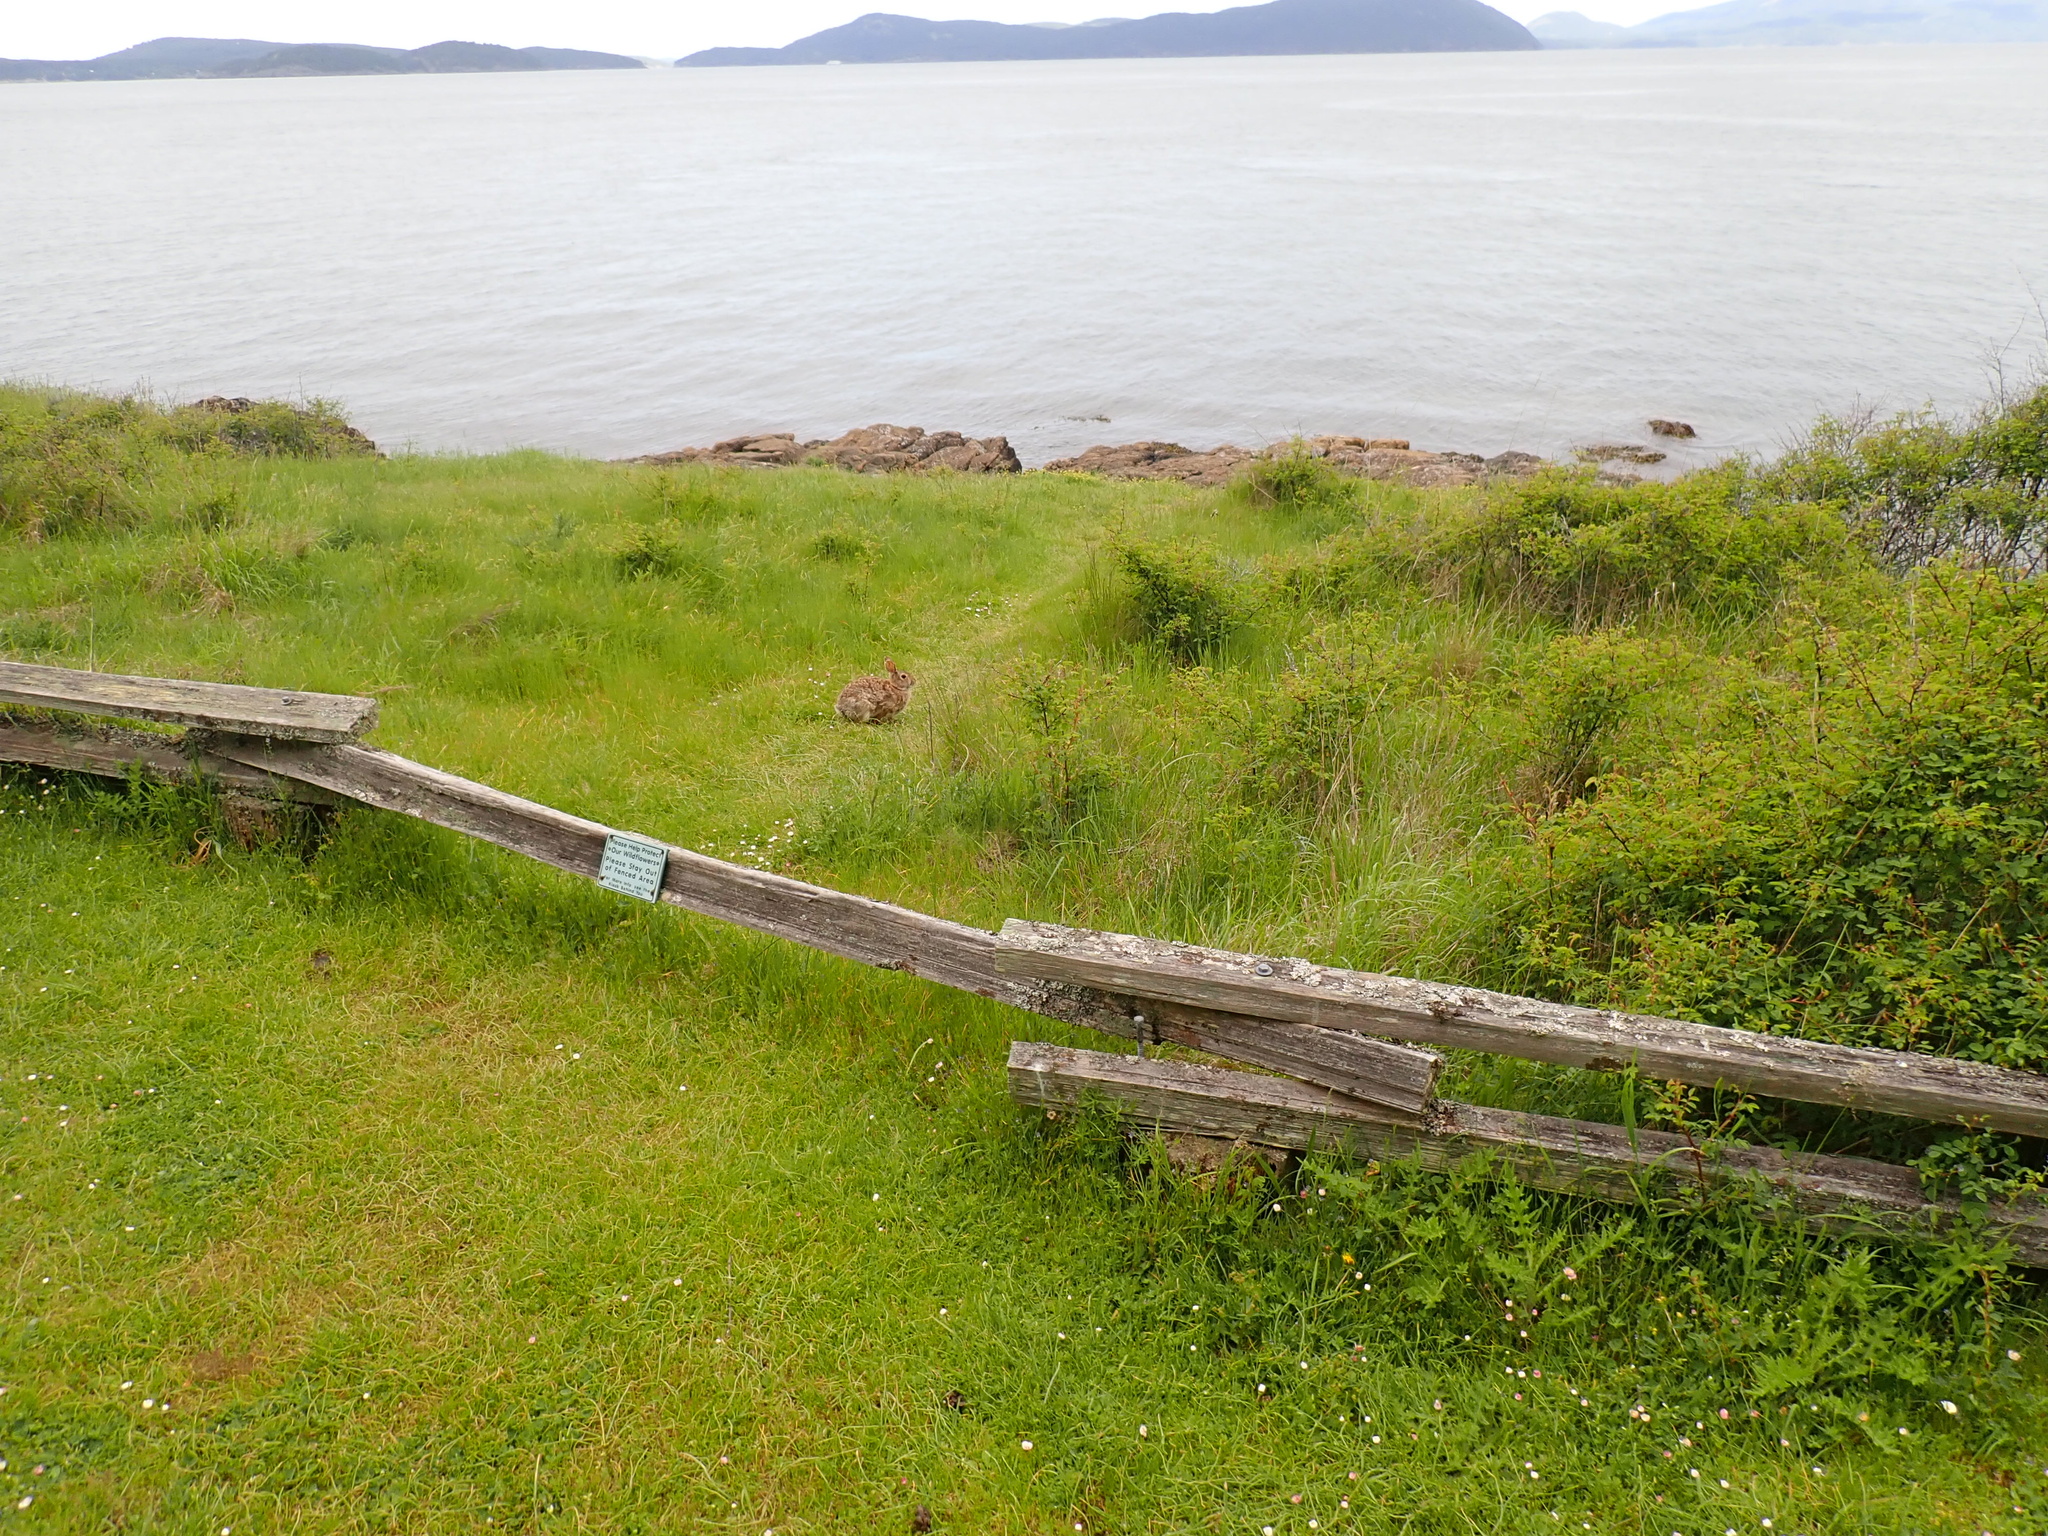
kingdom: Animalia
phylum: Chordata
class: Mammalia
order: Lagomorpha
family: Leporidae
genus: Sylvilagus
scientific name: Sylvilagus floridanus
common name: Eastern cottontail
